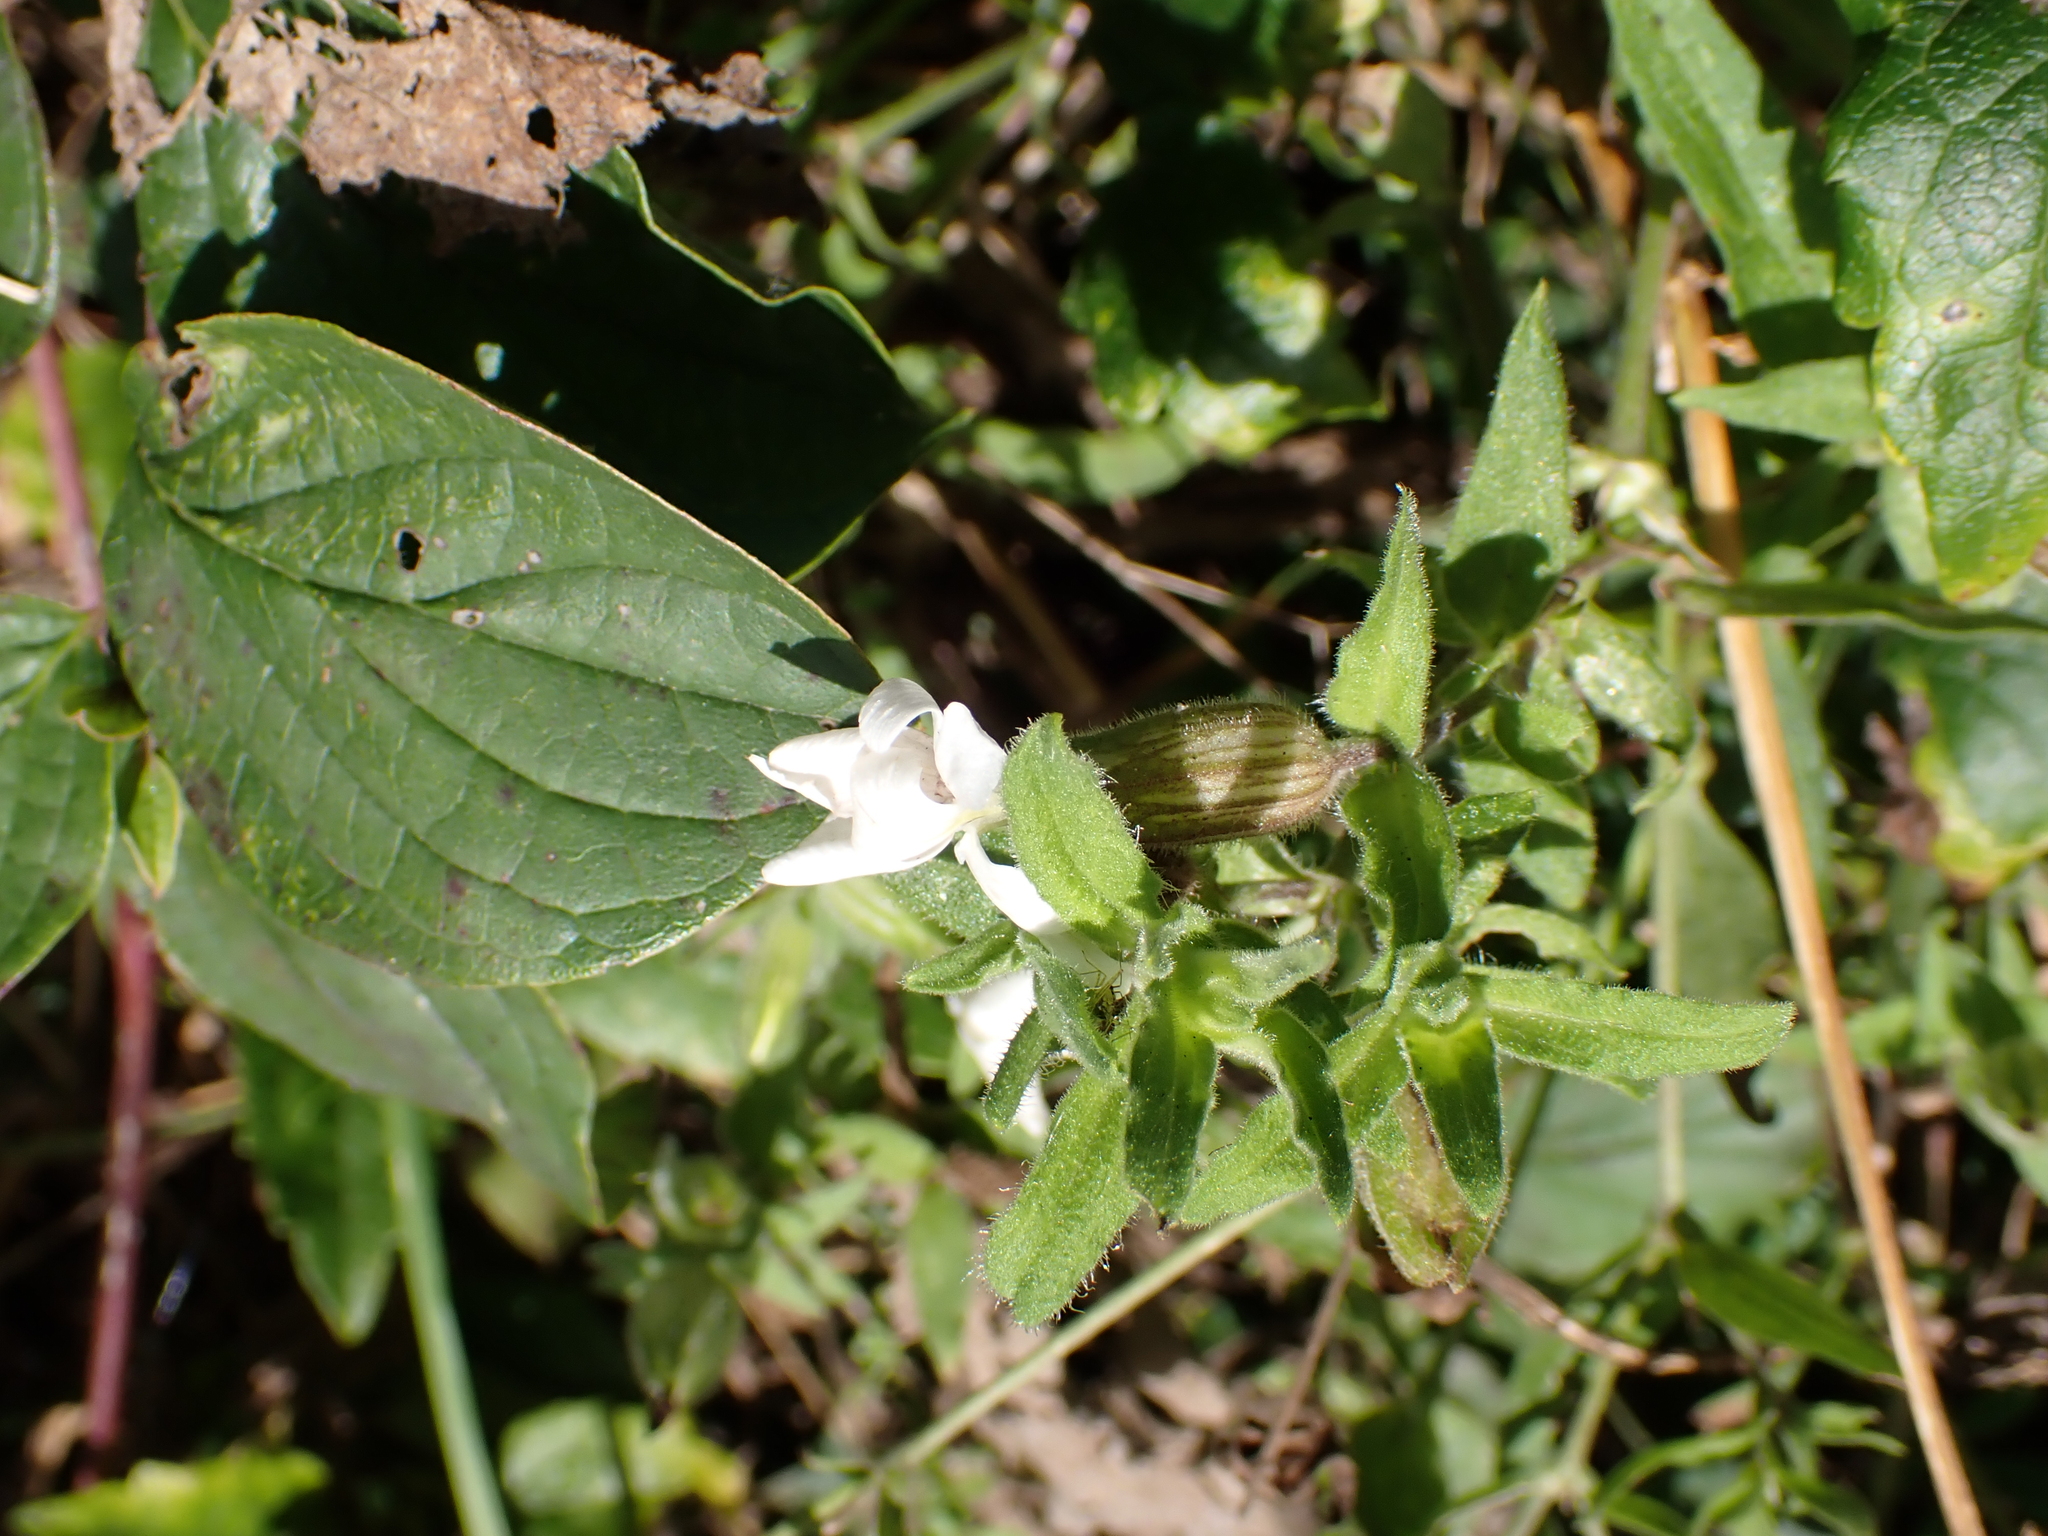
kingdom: Plantae
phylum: Tracheophyta
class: Magnoliopsida
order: Caryophyllales
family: Caryophyllaceae
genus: Silene
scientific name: Silene latifolia
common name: White campion
